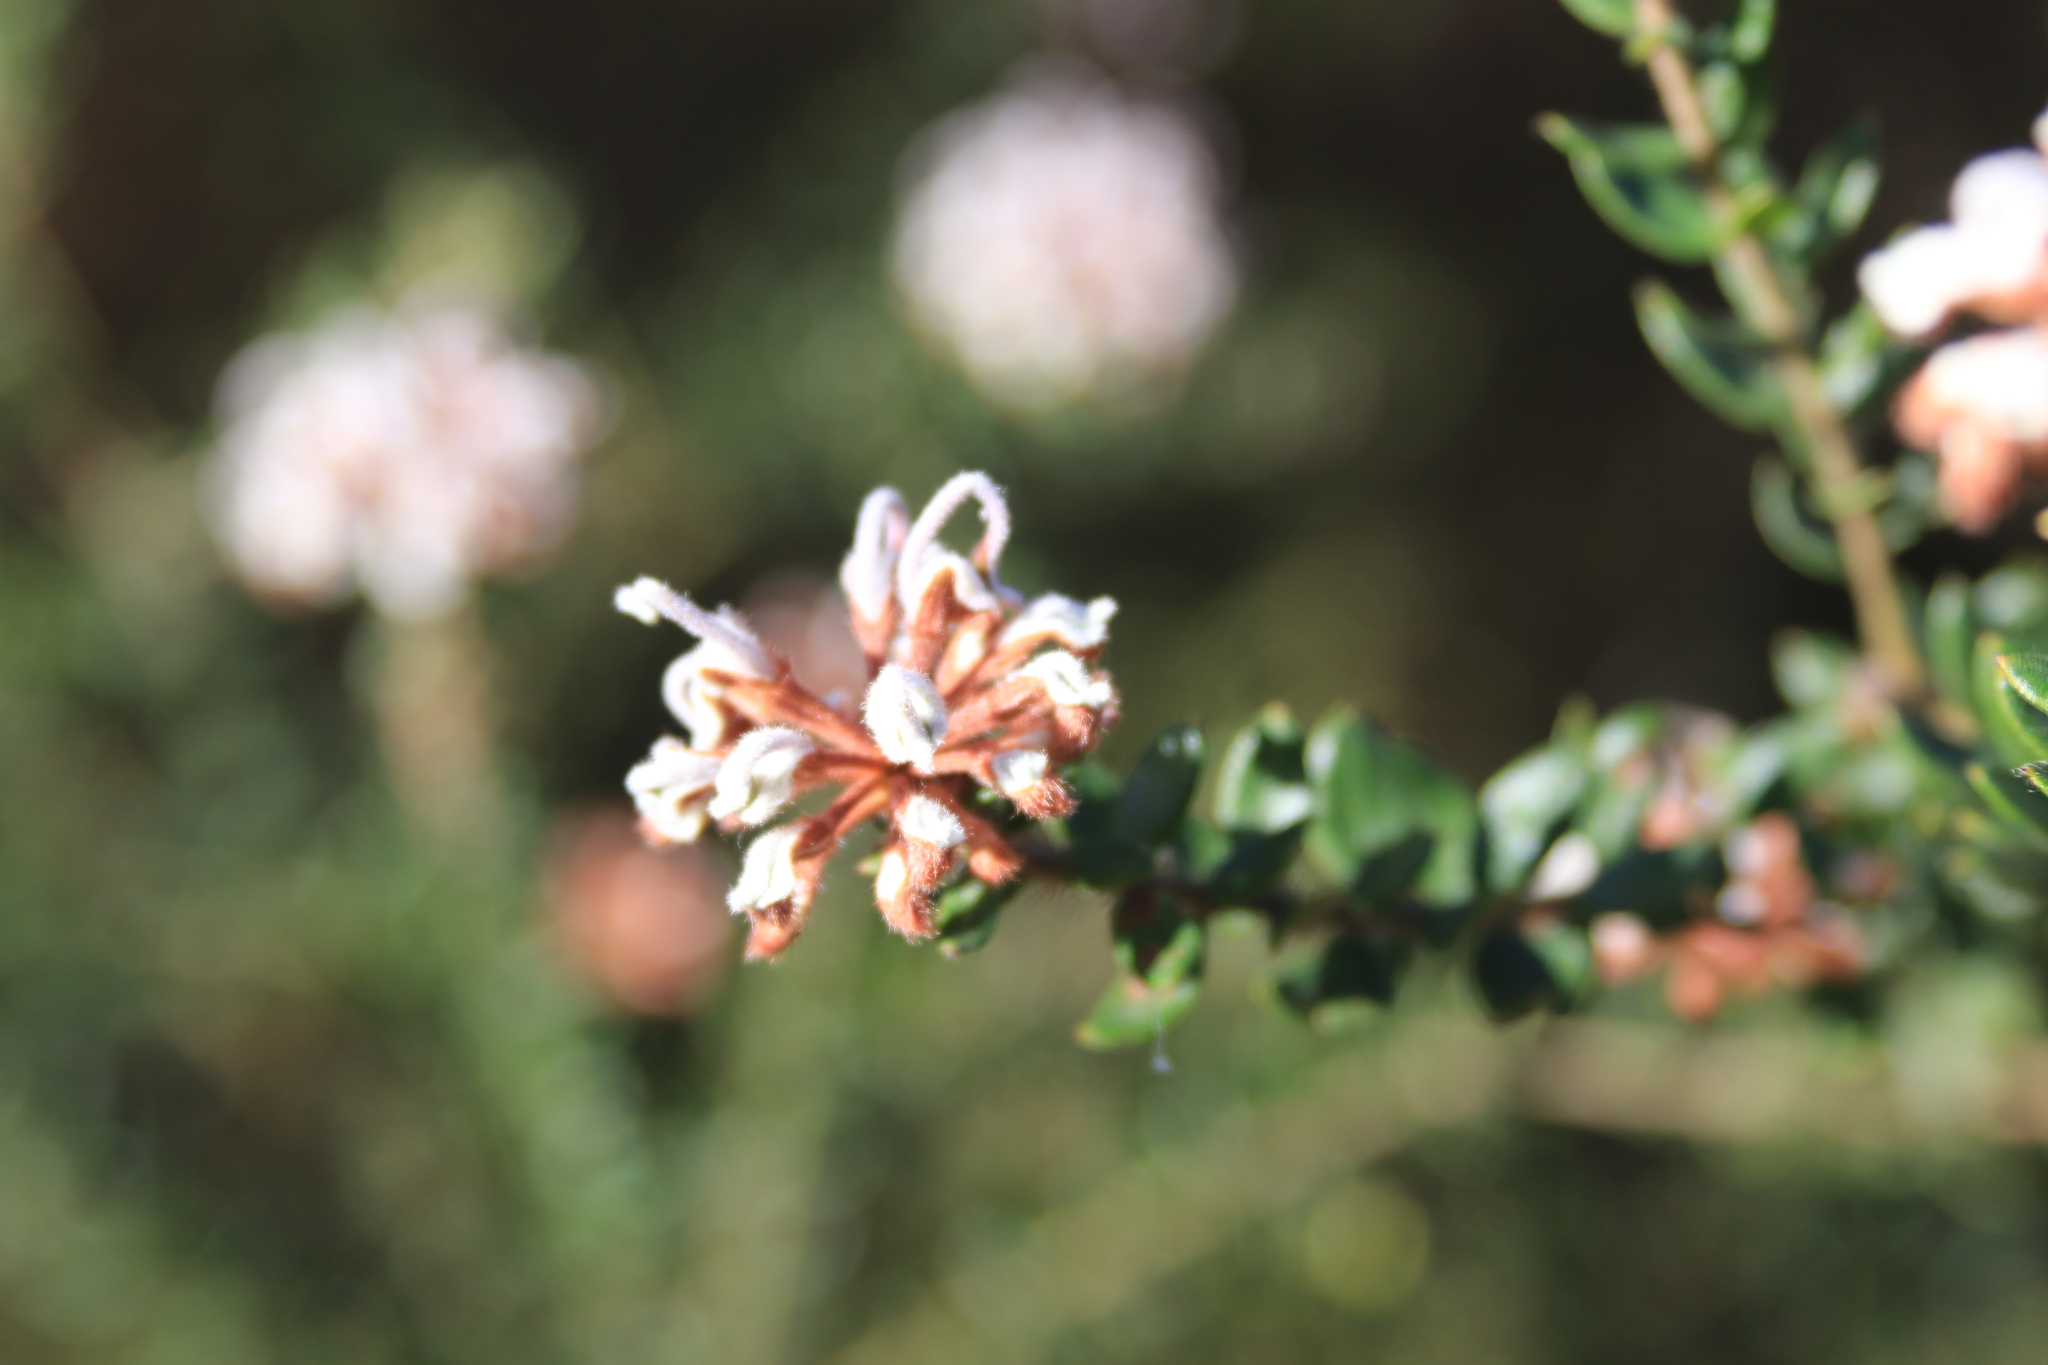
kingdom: Plantae
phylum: Tracheophyta
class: Magnoliopsida
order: Proteales
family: Proteaceae
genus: Grevillea
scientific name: Grevillea buxifolia
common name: Grey spiderflower
